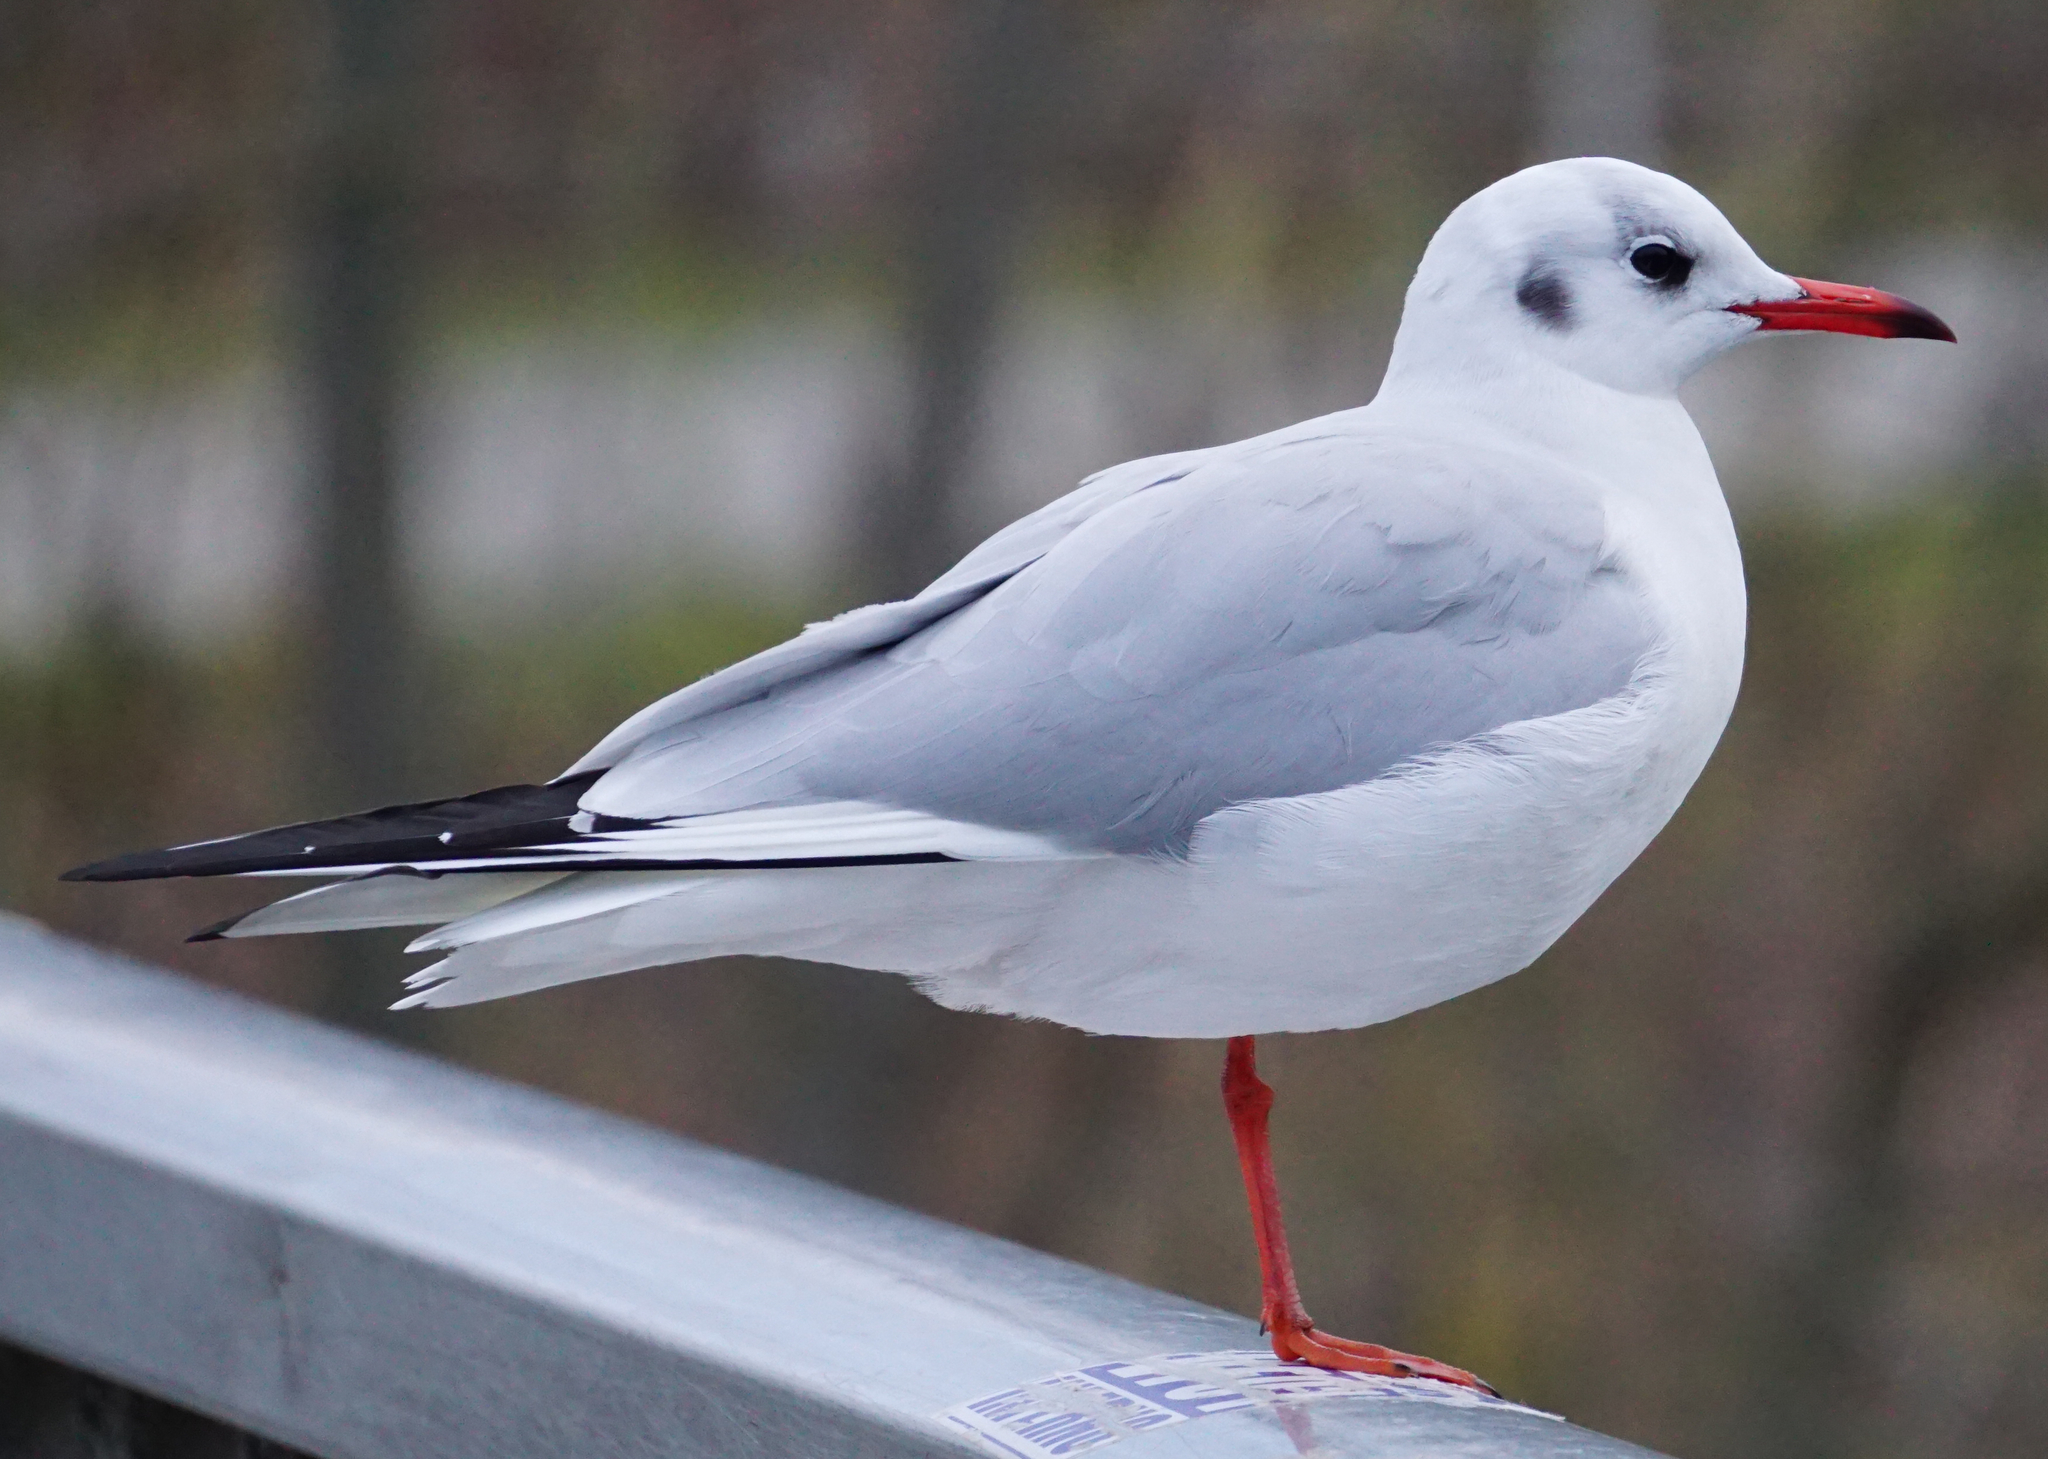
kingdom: Animalia
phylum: Chordata
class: Aves
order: Charadriiformes
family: Laridae
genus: Chroicocephalus
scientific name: Chroicocephalus ridibundus
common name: Black-headed gull
